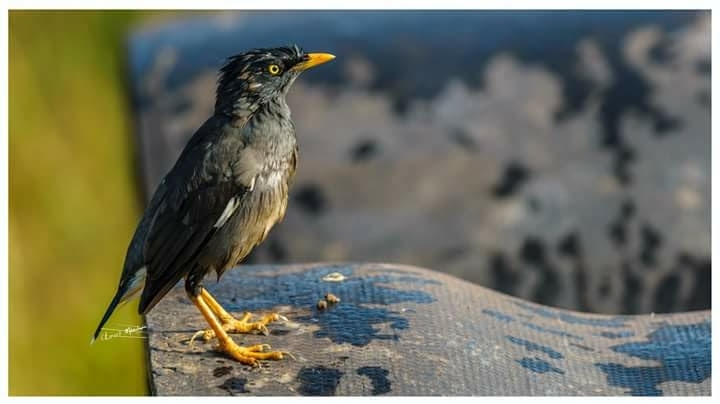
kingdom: Animalia
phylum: Chordata
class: Aves
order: Passeriformes
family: Sturnidae
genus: Acridotheres
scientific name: Acridotheres fuscus
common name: Jungle myna
